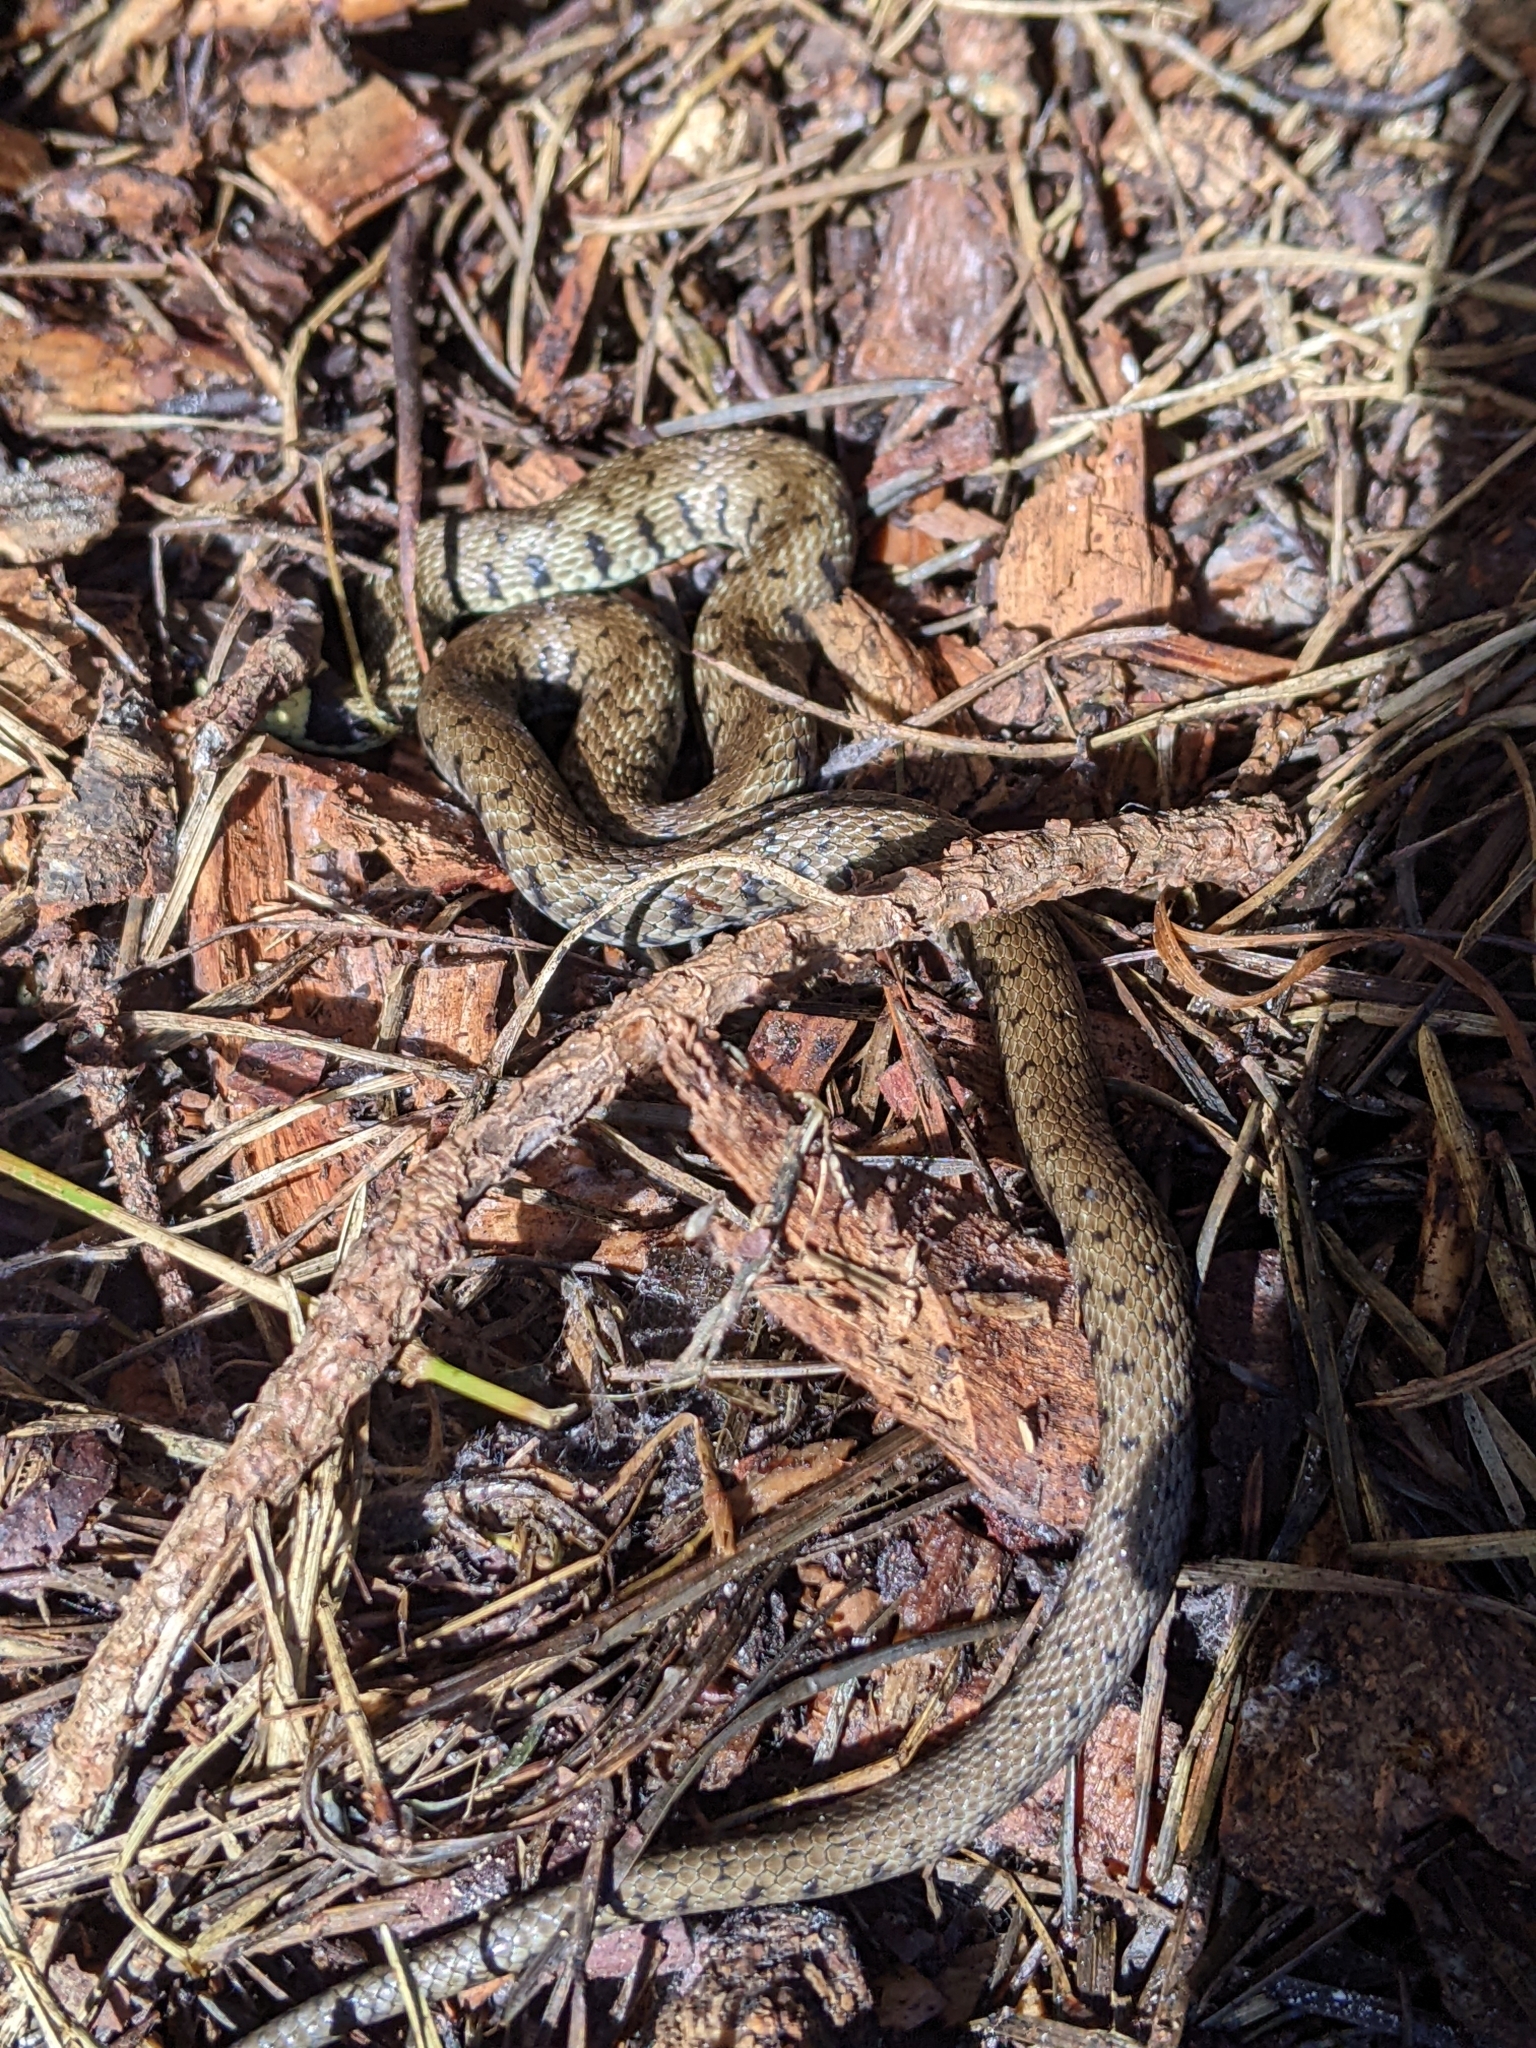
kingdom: Animalia
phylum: Chordata
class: Squamata
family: Colubridae
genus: Natrix
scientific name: Natrix helvetica
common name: Banded grass snake
